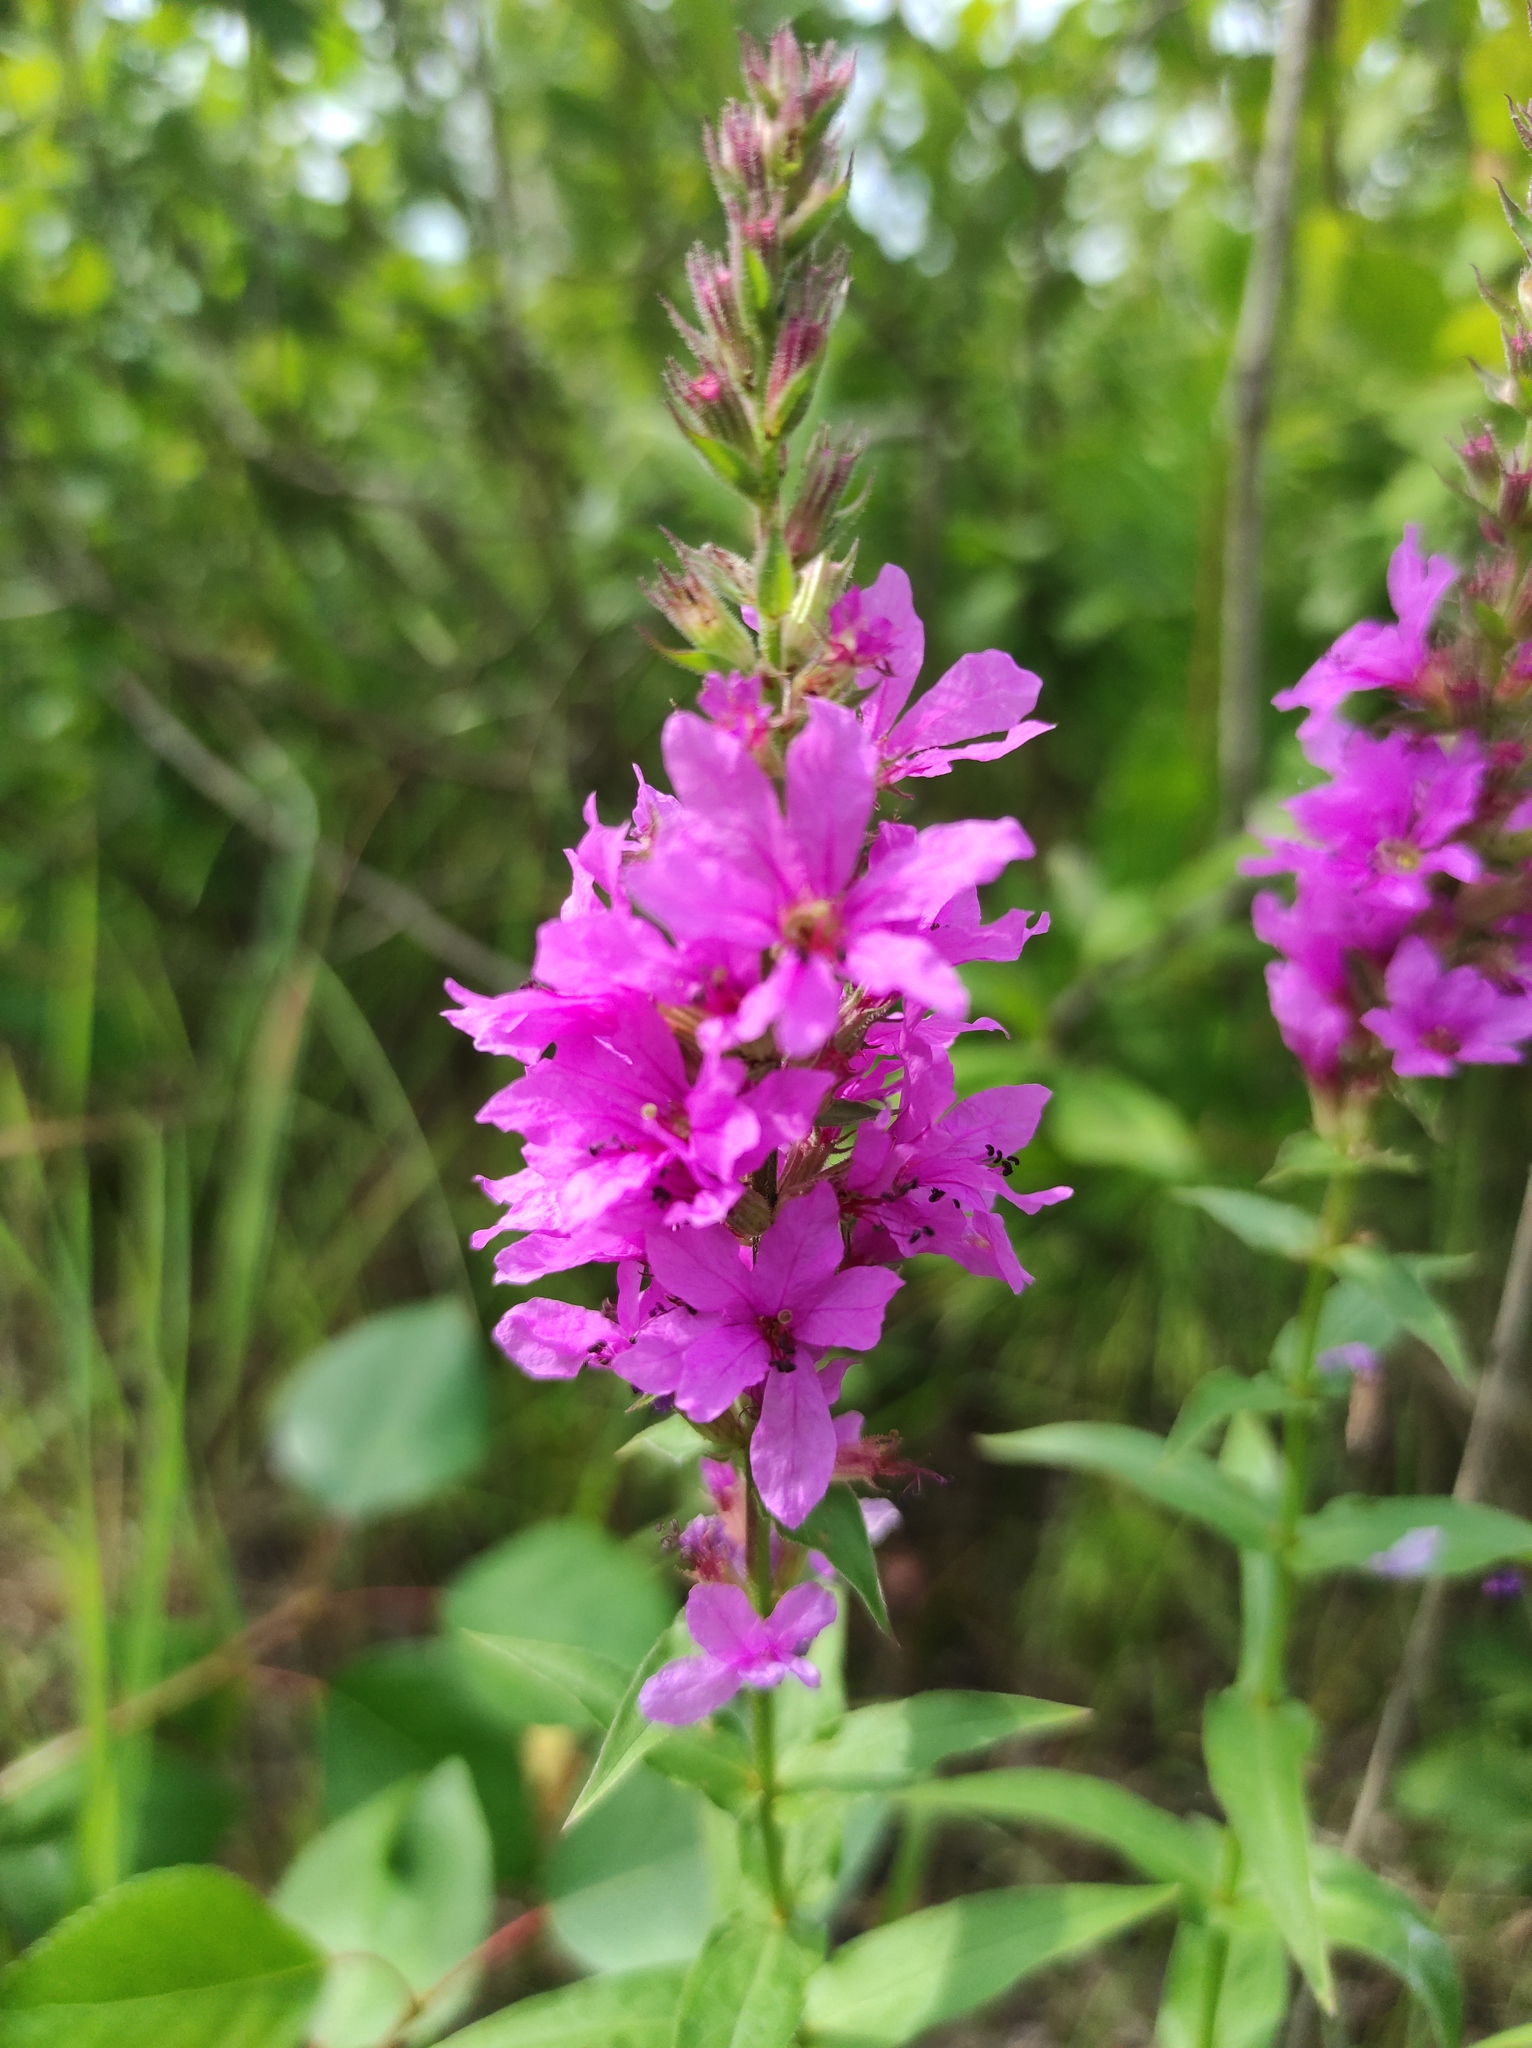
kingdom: Plantae
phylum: Tracheophyta
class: Magnoliopsida
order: Myrtales
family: Lythraceae
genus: Lythrum
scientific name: Lythrum salicaria
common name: Purple loosestrife
